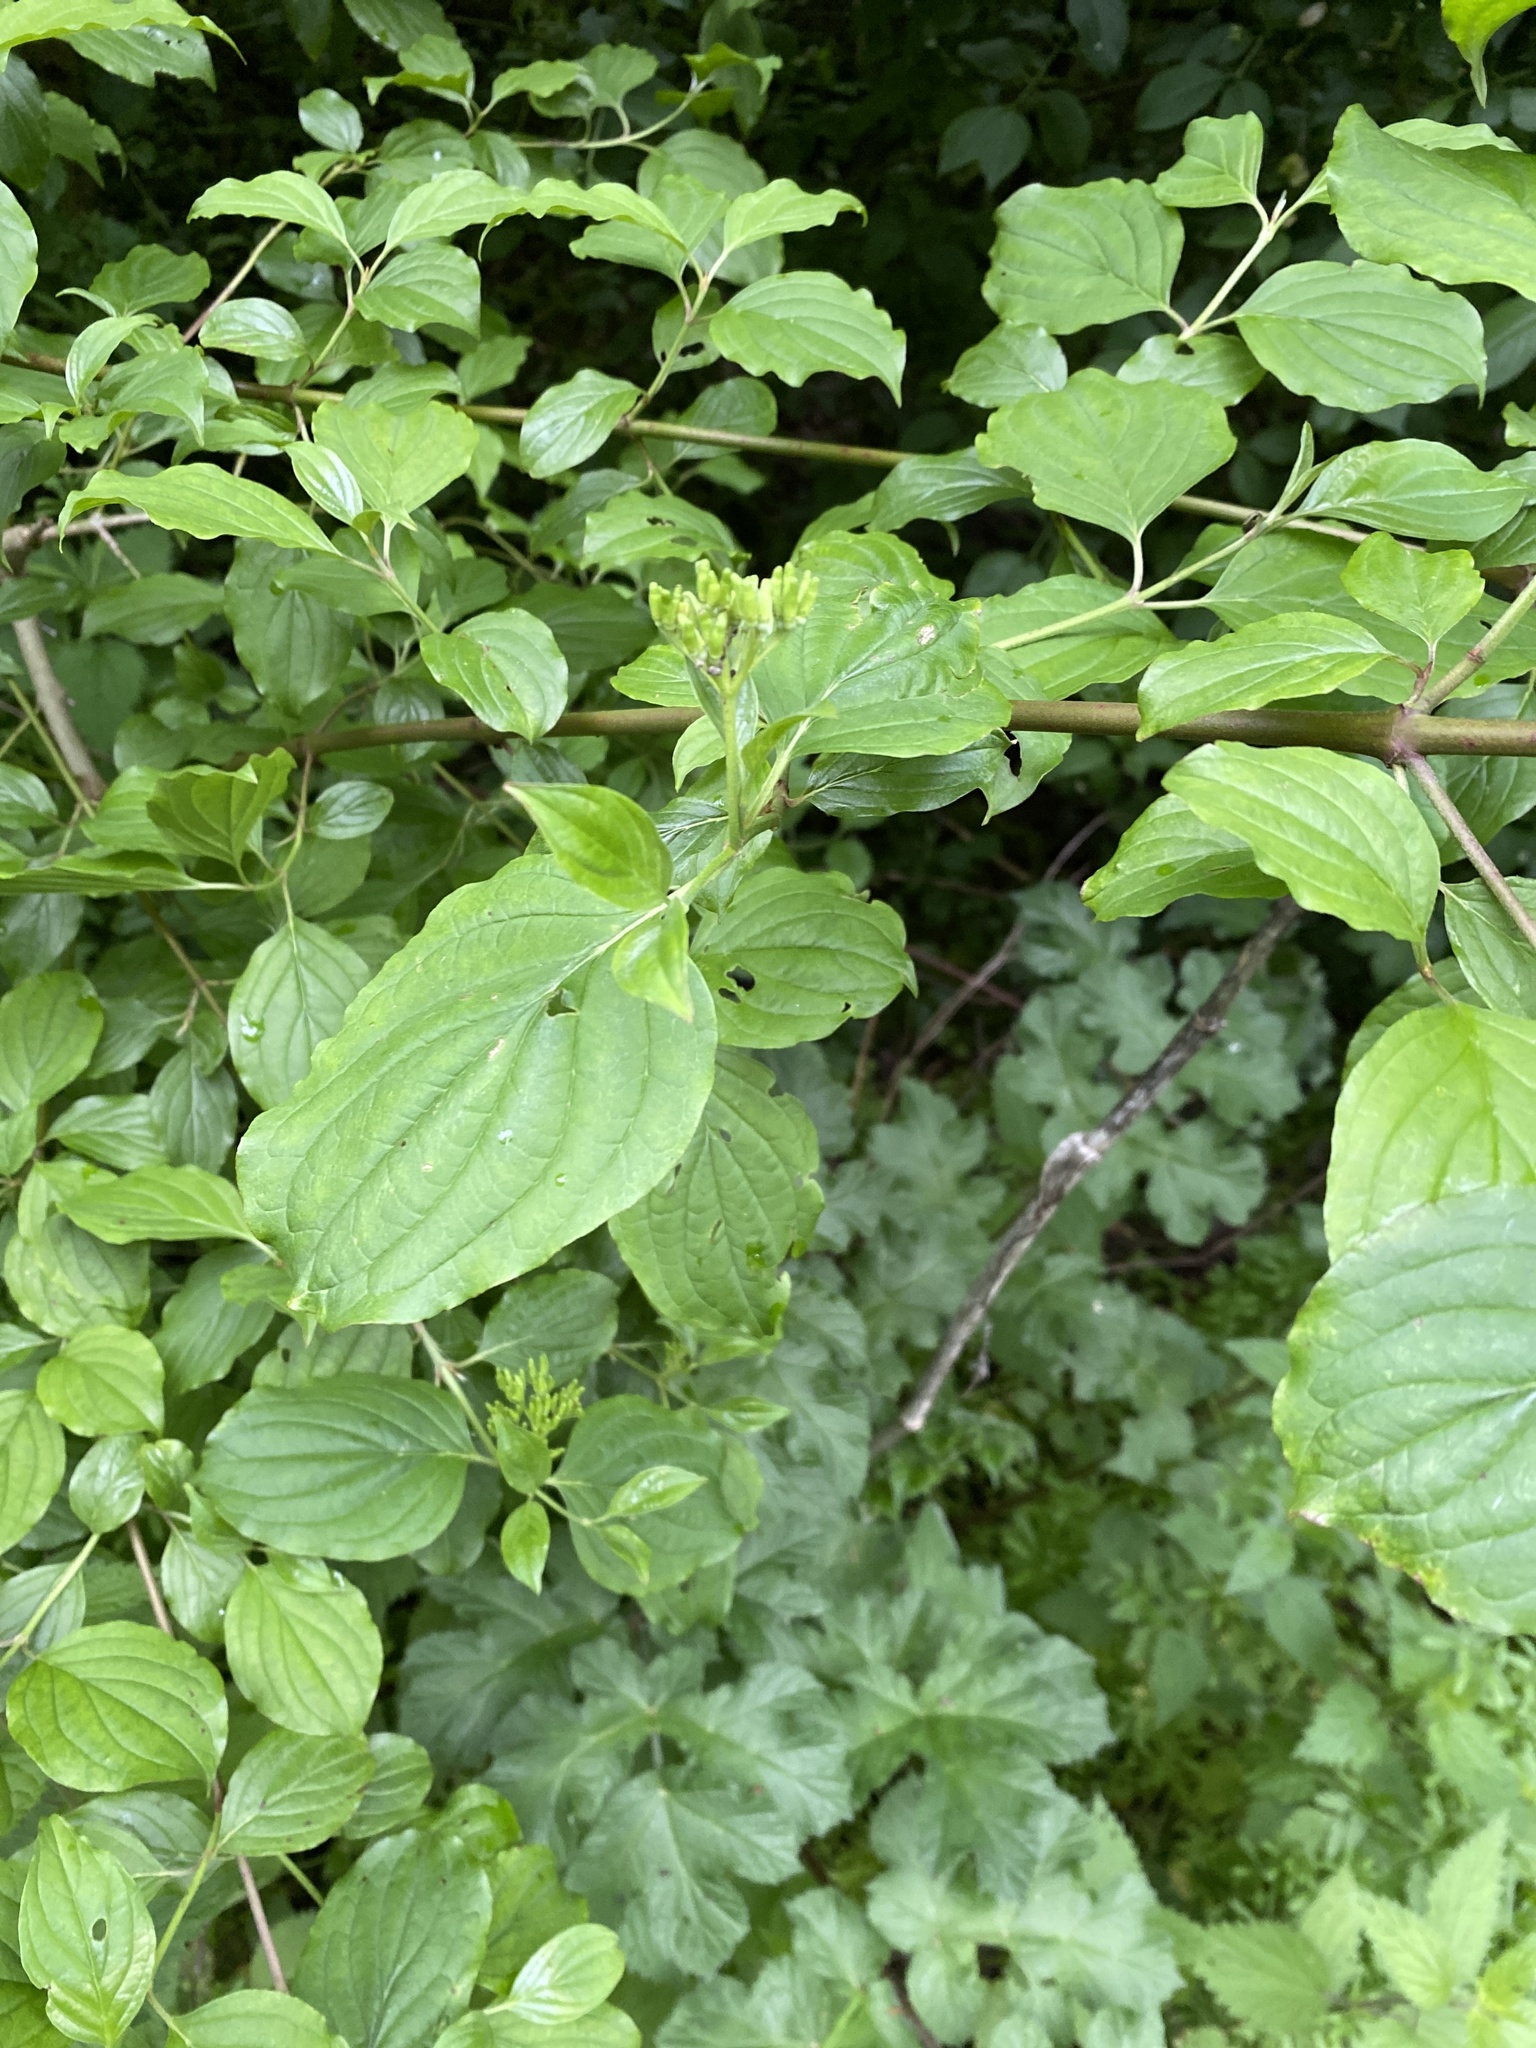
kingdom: Plantae
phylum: Tracheophyta
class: Magnoliopsida
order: Cornales
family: Cornaceae
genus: Cornus
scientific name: Cornus sanguinea
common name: Dogwood
